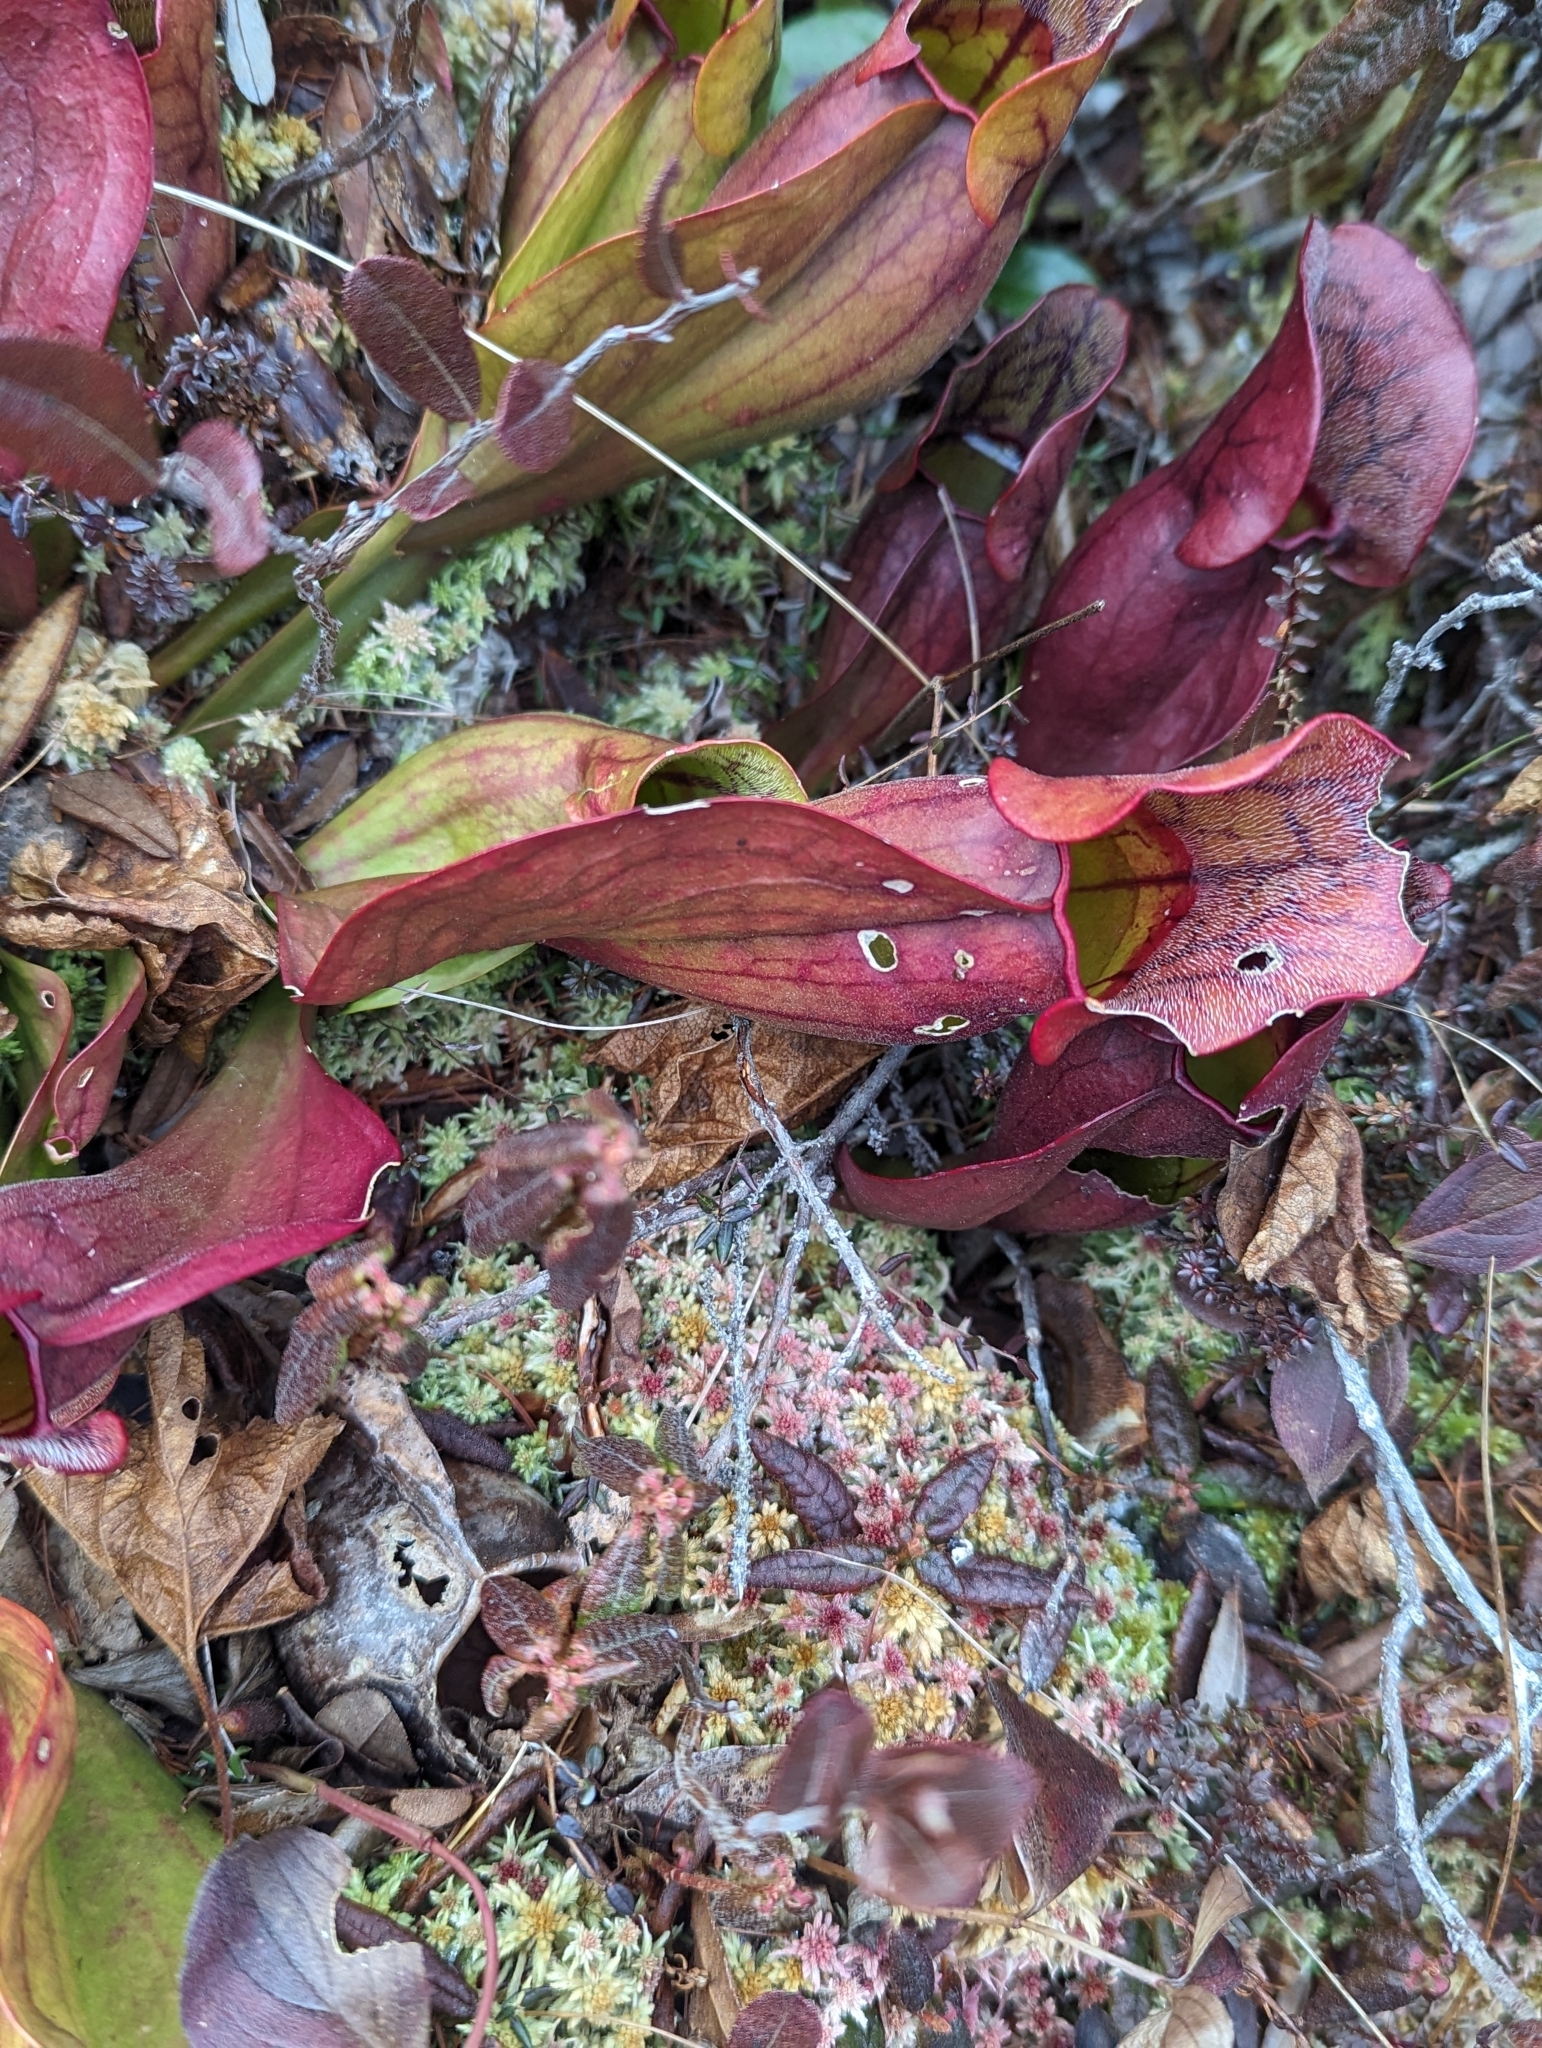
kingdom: Plantae
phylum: Tracheophyta
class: Magnoliopsida
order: Ericales
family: Sarraceniaceae
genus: Sarracenia
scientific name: Sarracenia purpurea
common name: Pitcherplant
